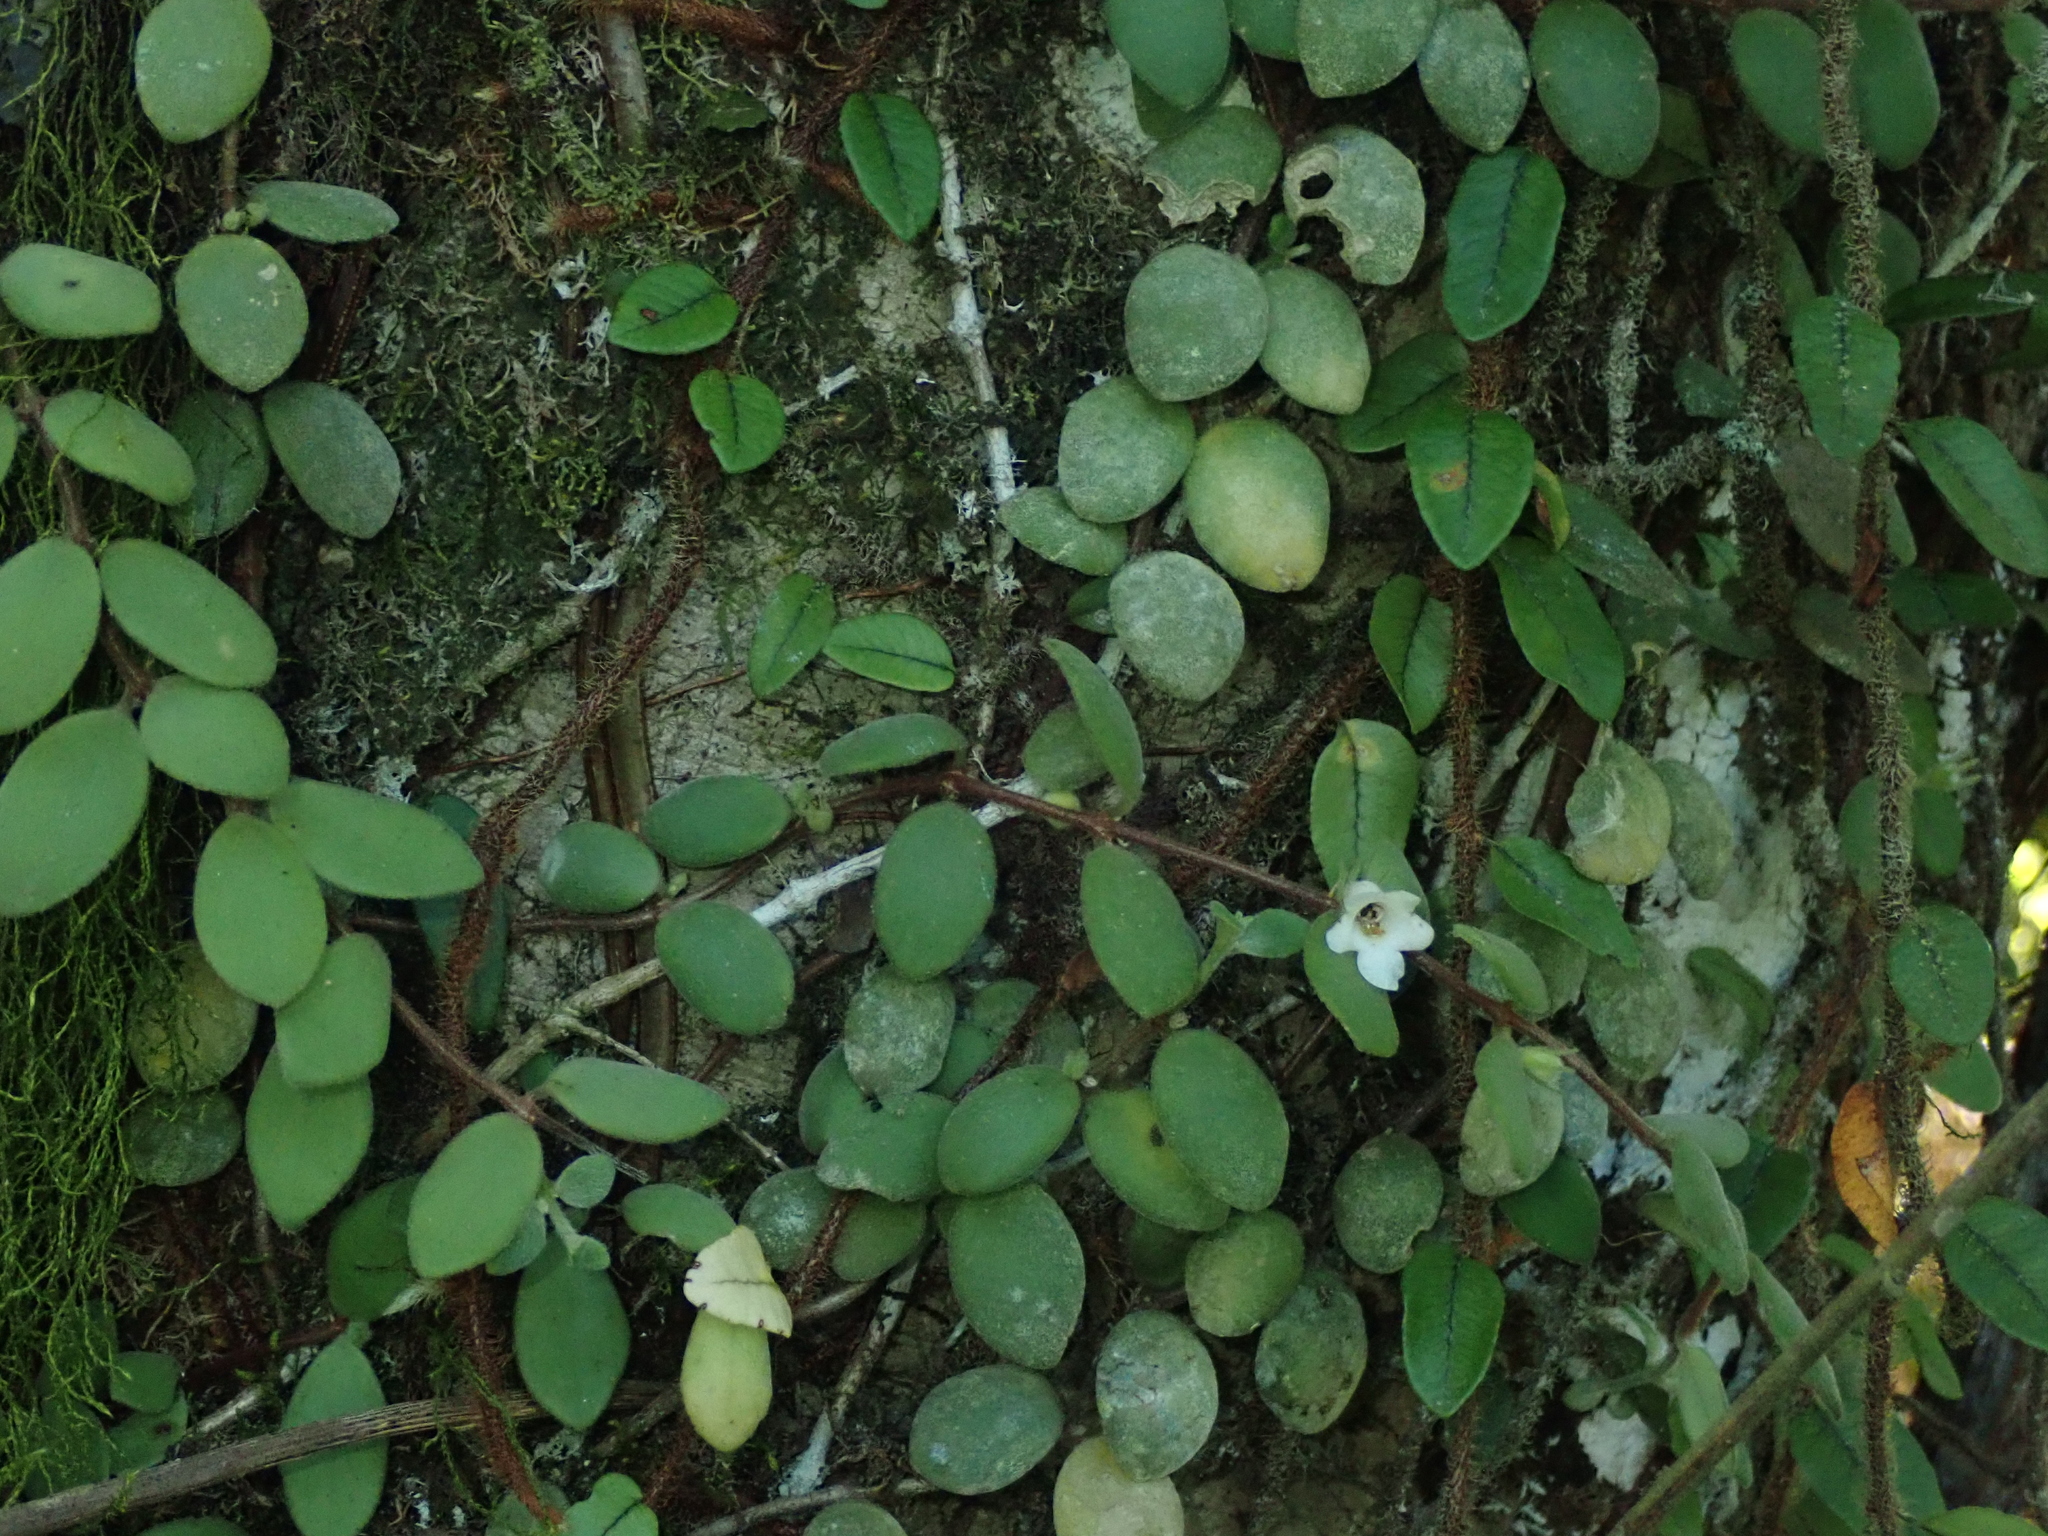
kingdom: Plantae
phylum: Tracheophyta
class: Magnoliopsida
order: Lamiales
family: Gesneriaceae
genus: Codonanthe
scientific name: Codonanthe devosiana
